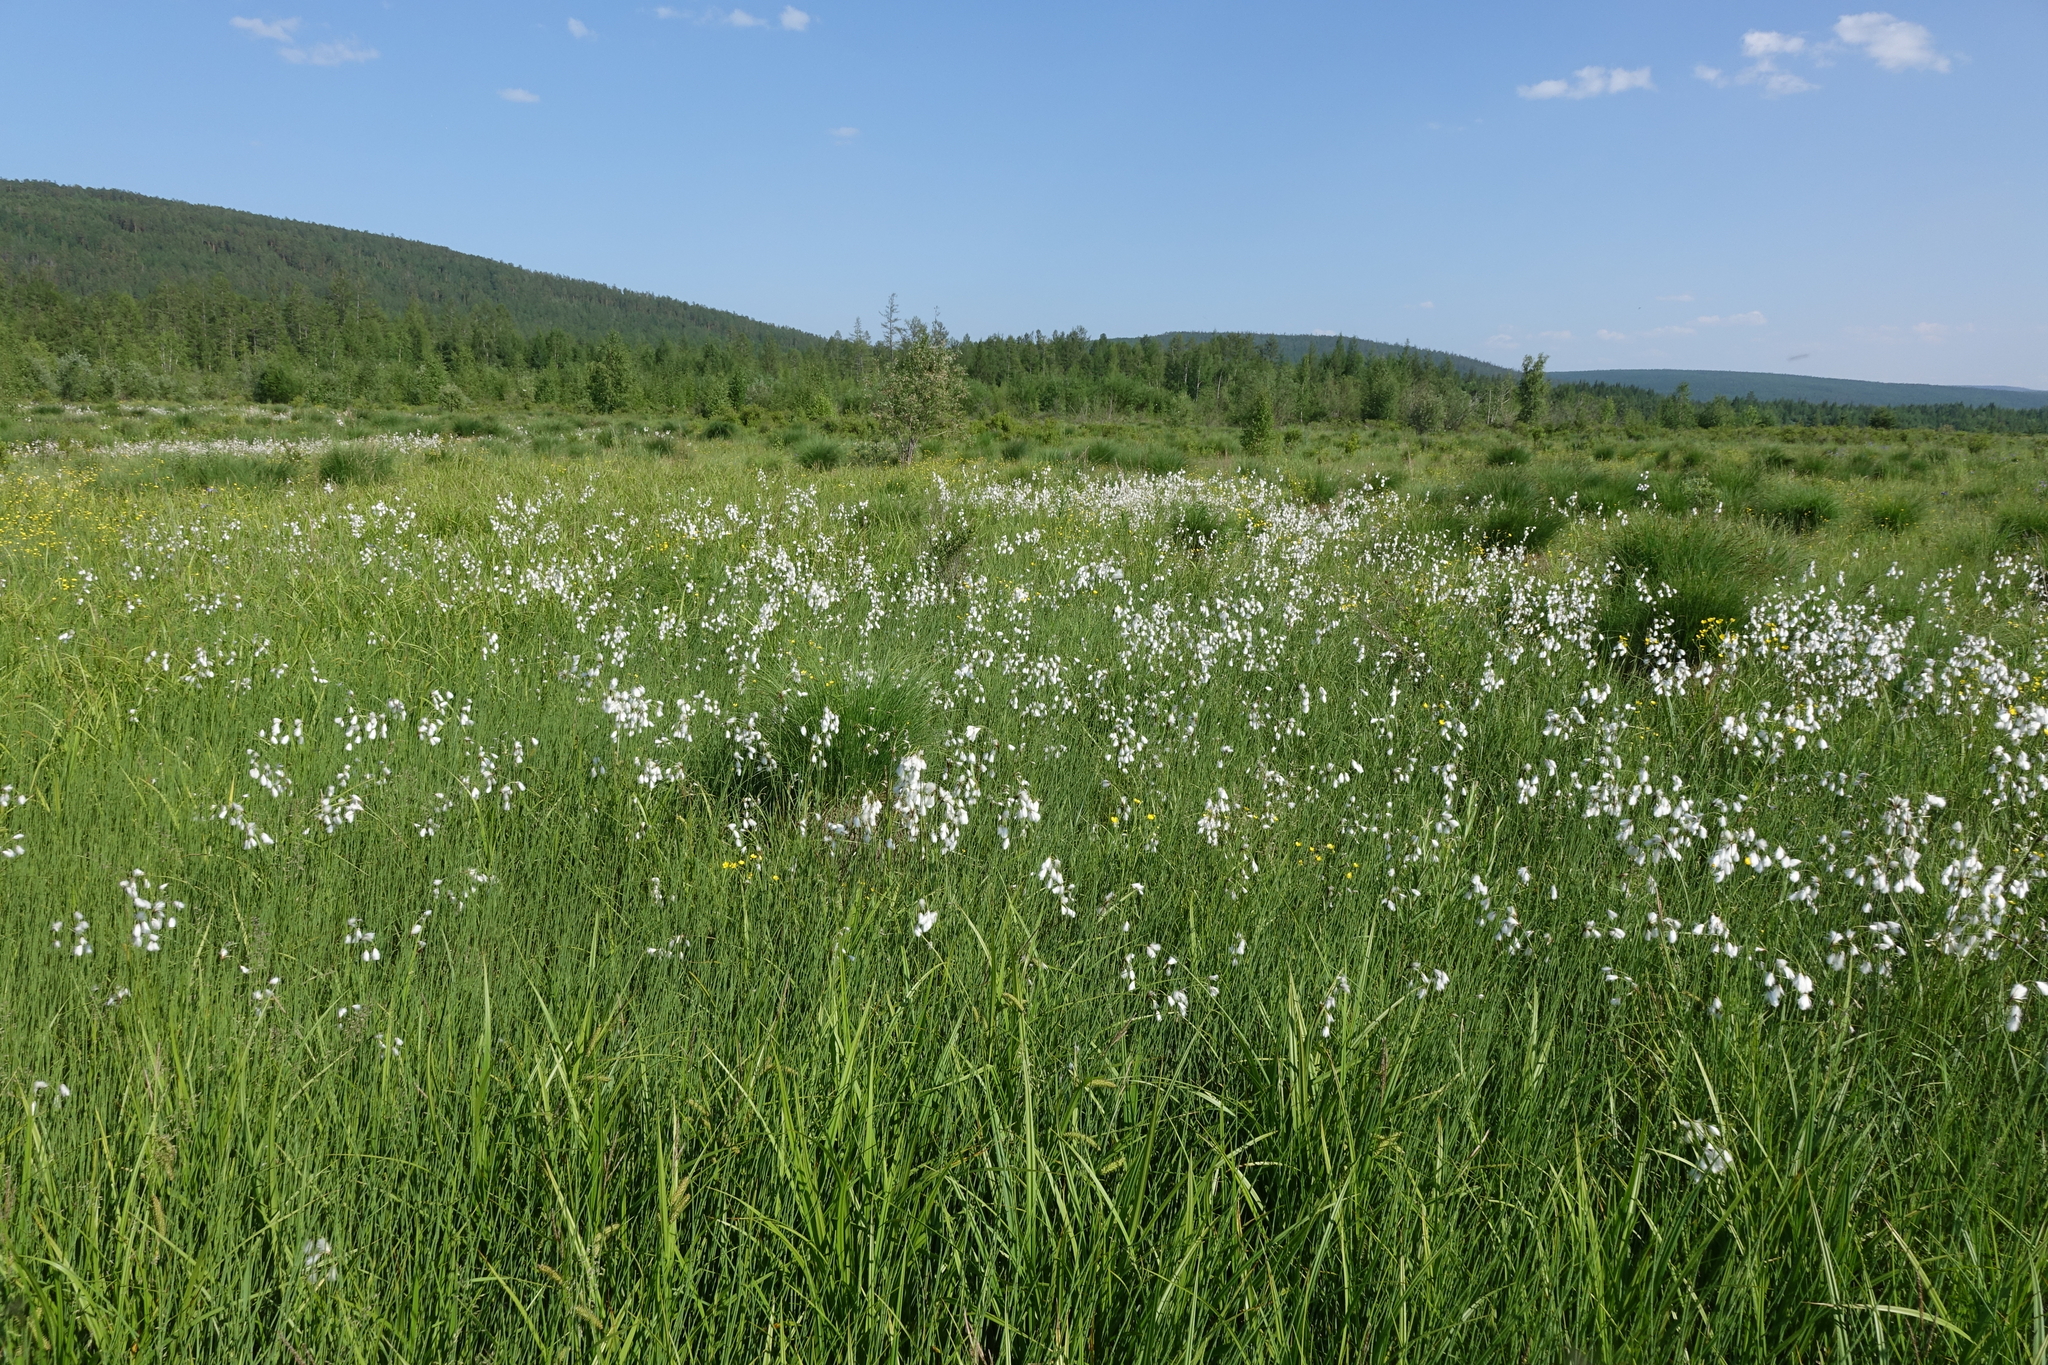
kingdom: Plantae
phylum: Tracheophyta
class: Liliopsida
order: Poales
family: Cyperaceae
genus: Eriophorum
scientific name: Eriophorum angustifolium
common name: Common cottongrass
